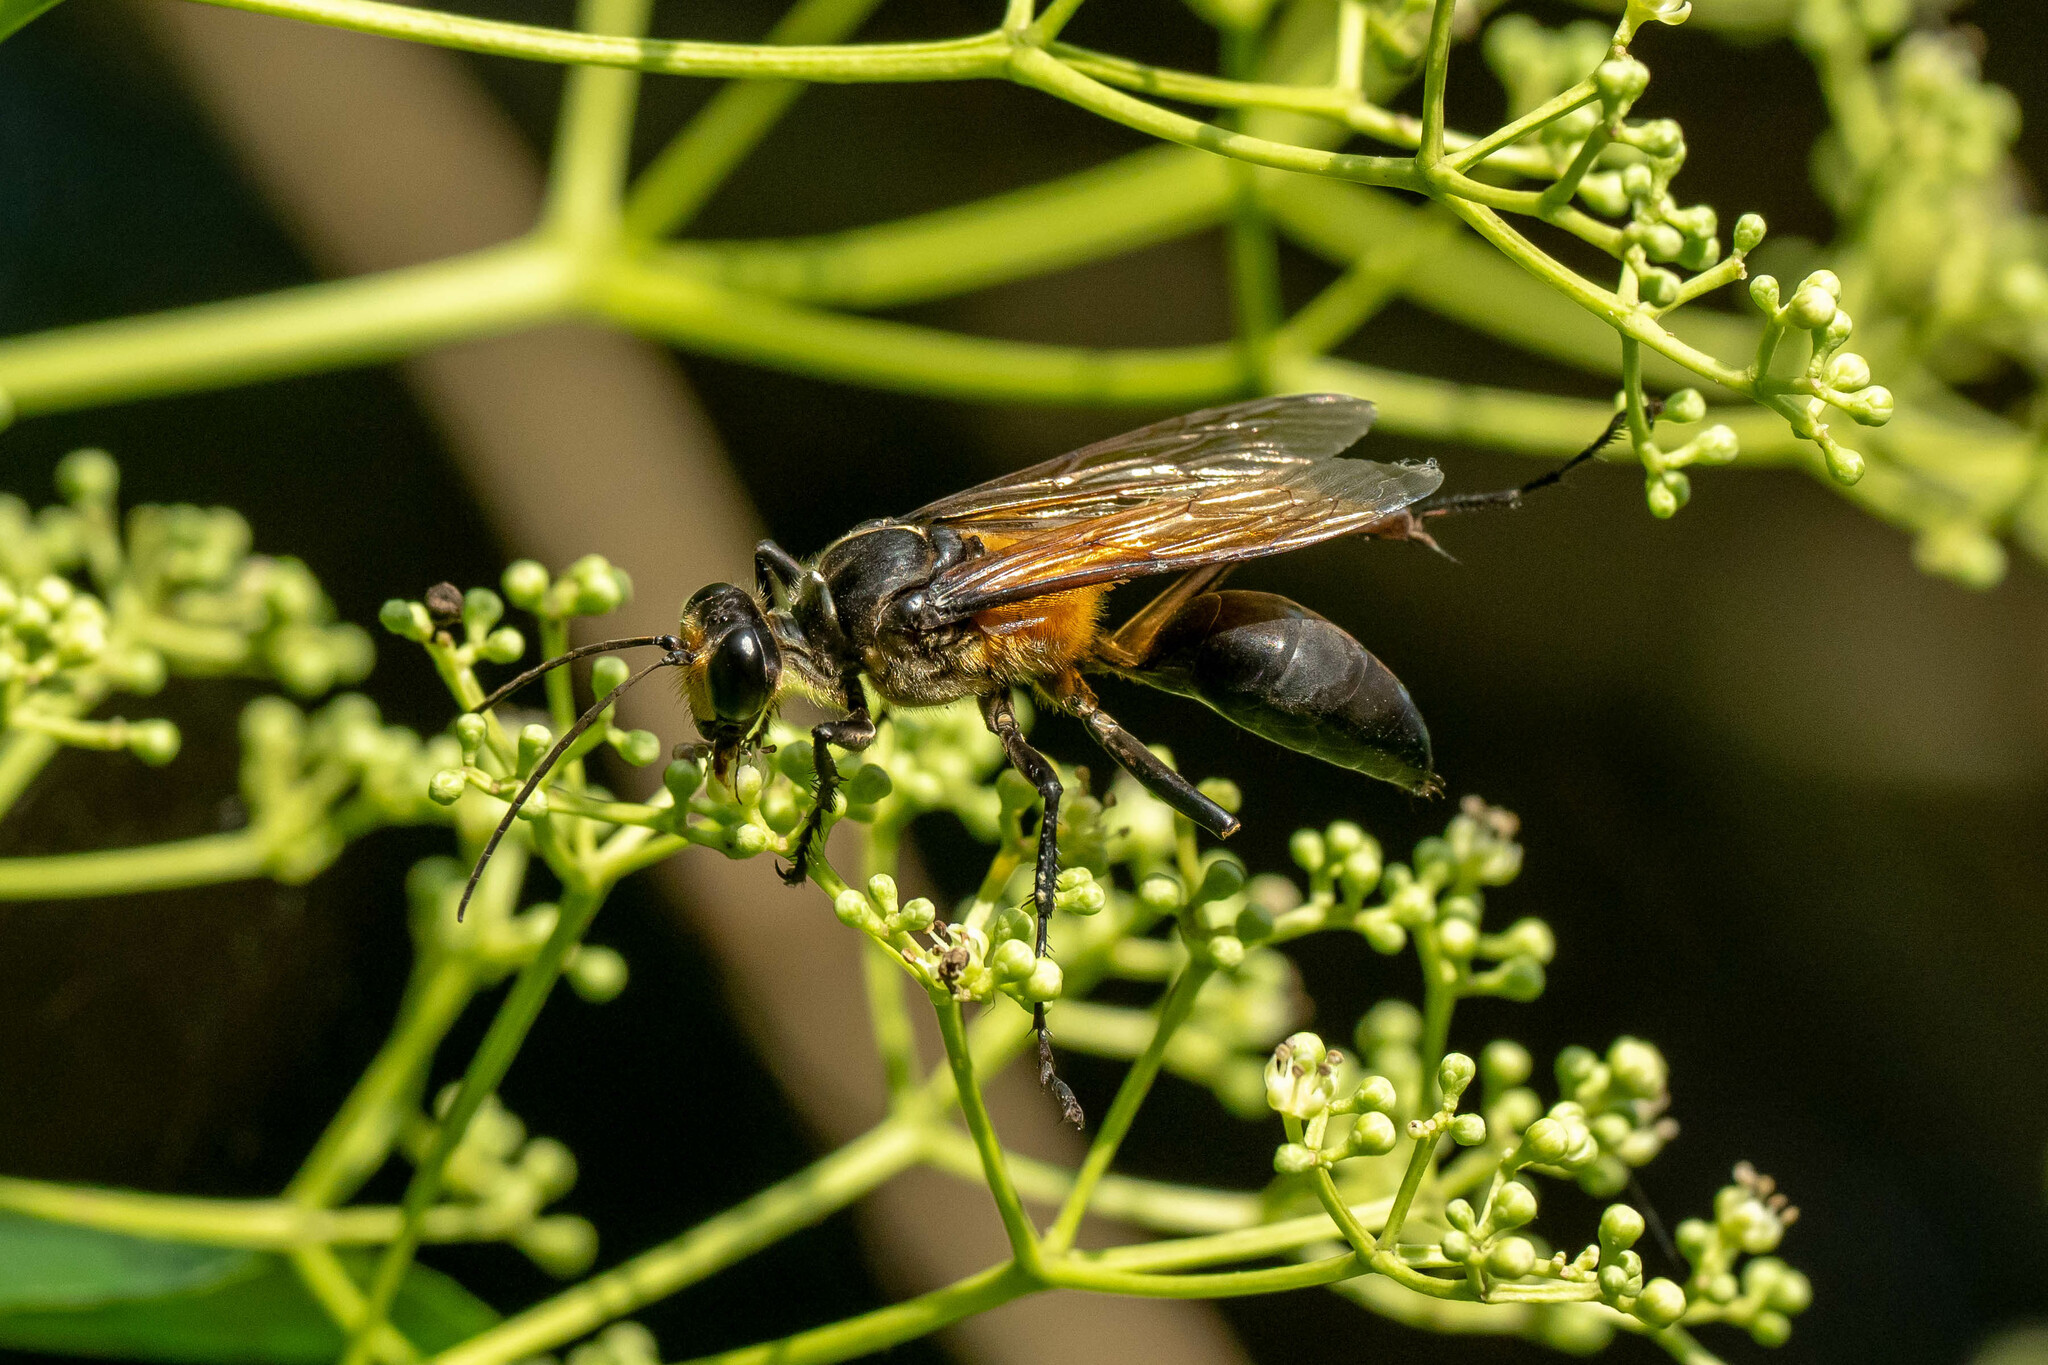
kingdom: Animalia
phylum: Arthropoda
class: Insecta
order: Hymenoptera
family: Sphecidae
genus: Sphex
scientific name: Sphex diabolicus
